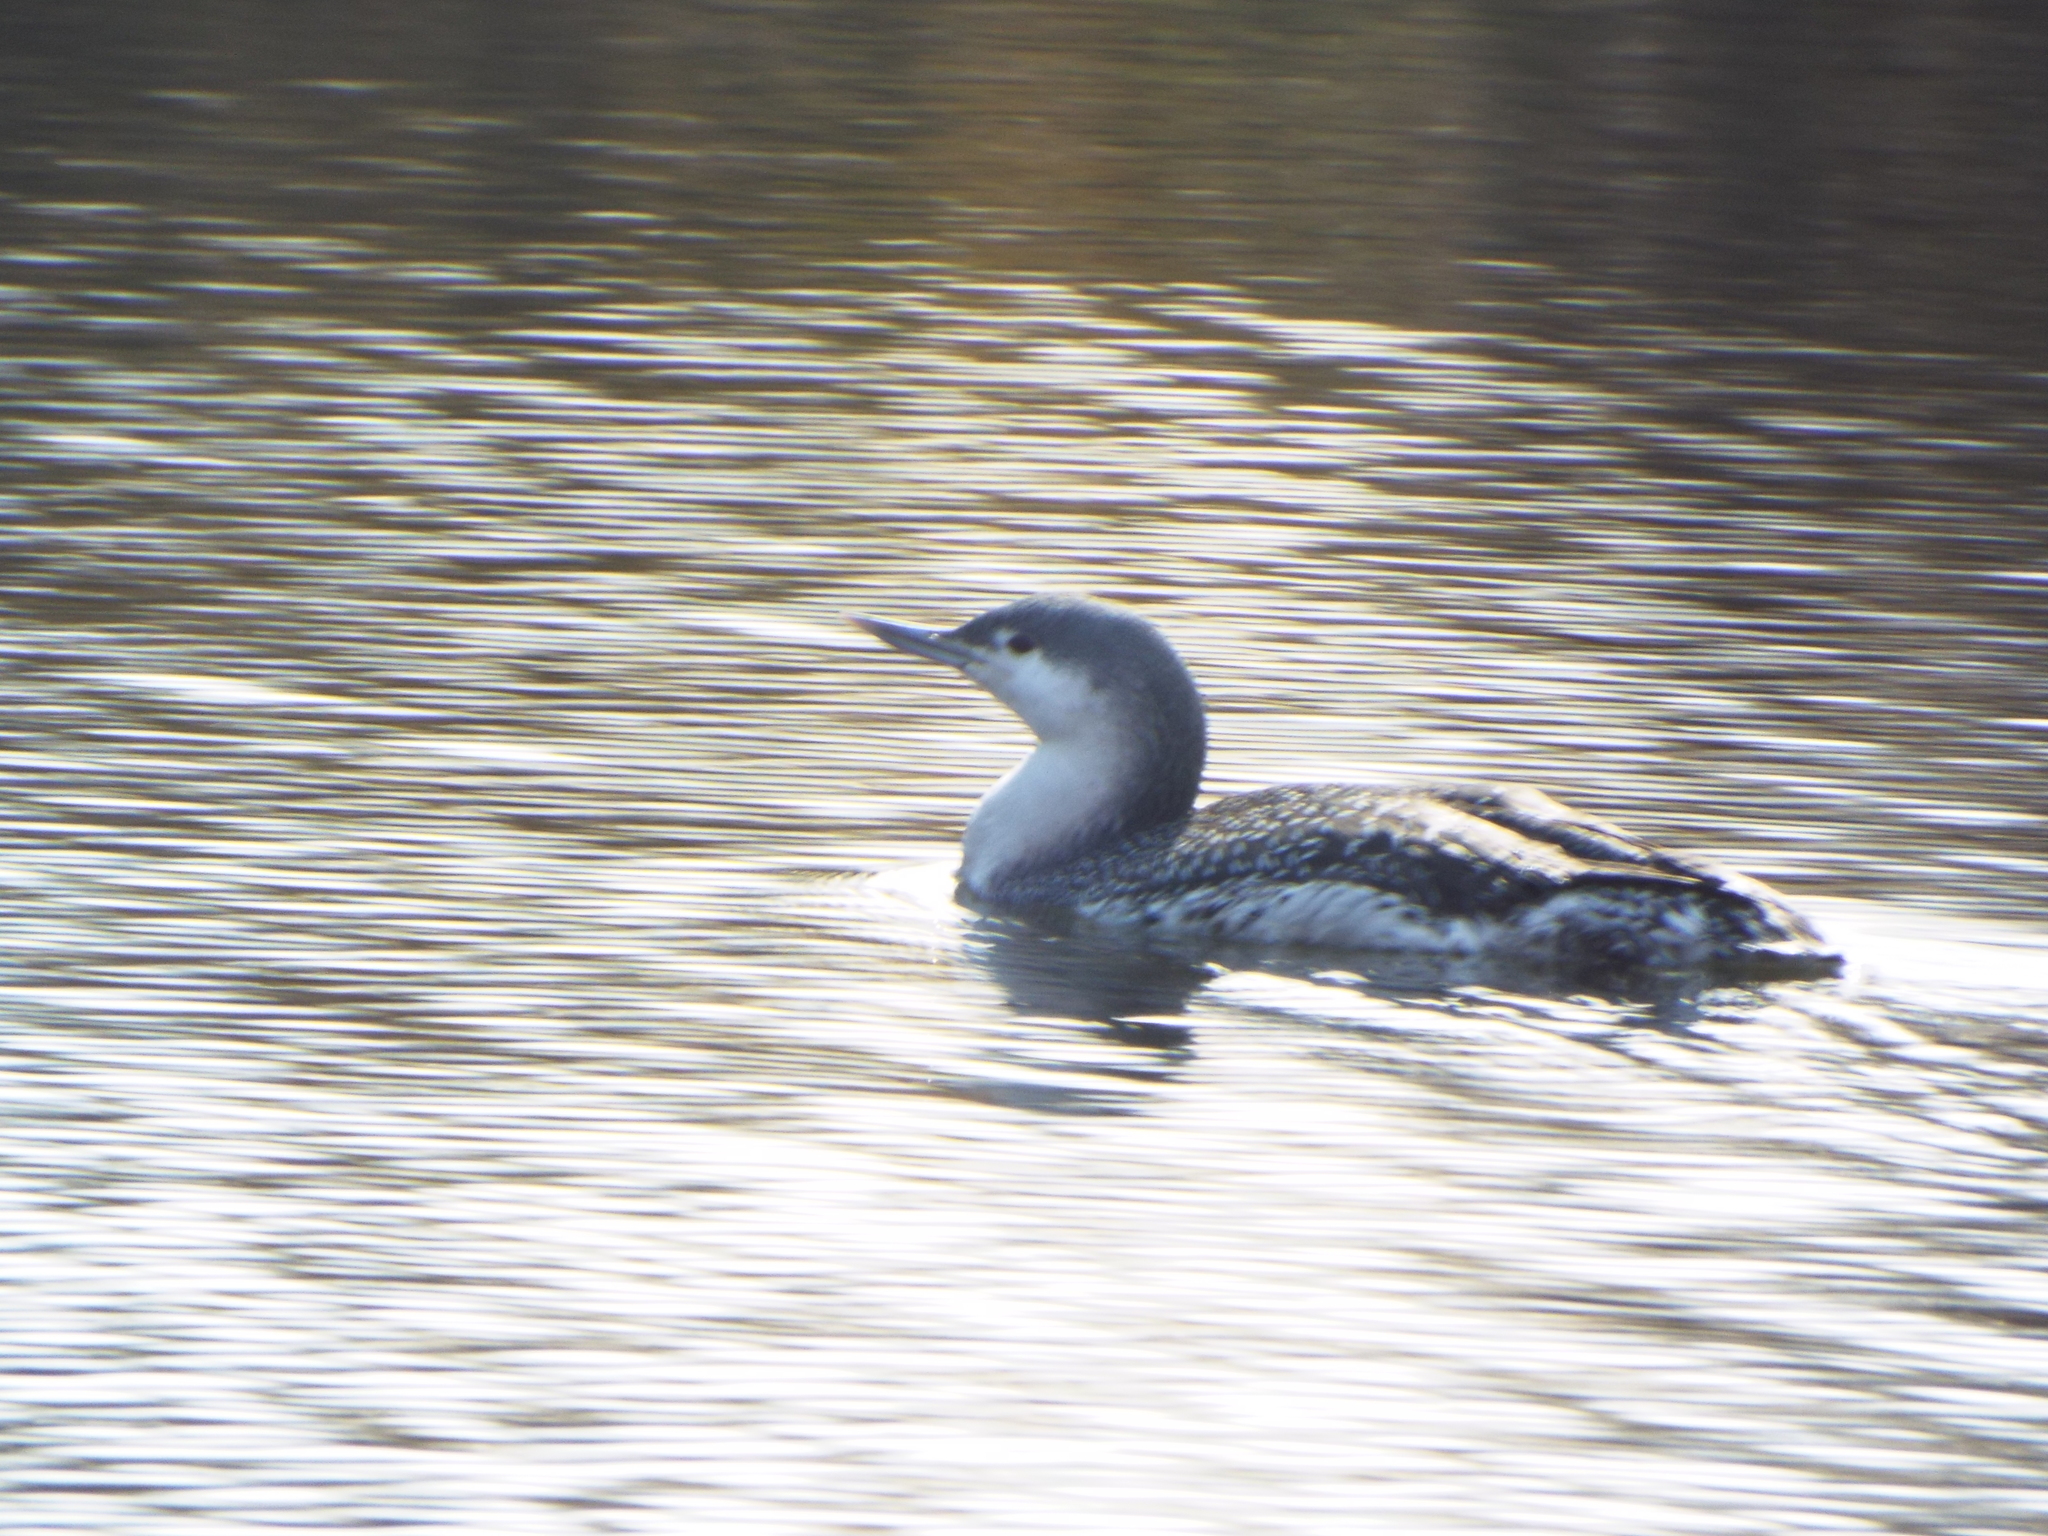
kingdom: Animalia
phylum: Chordata
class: Aves
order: Gaviiformes
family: Gaviidae
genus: Gavia
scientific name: Gavia stellata
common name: Red-throated loon
